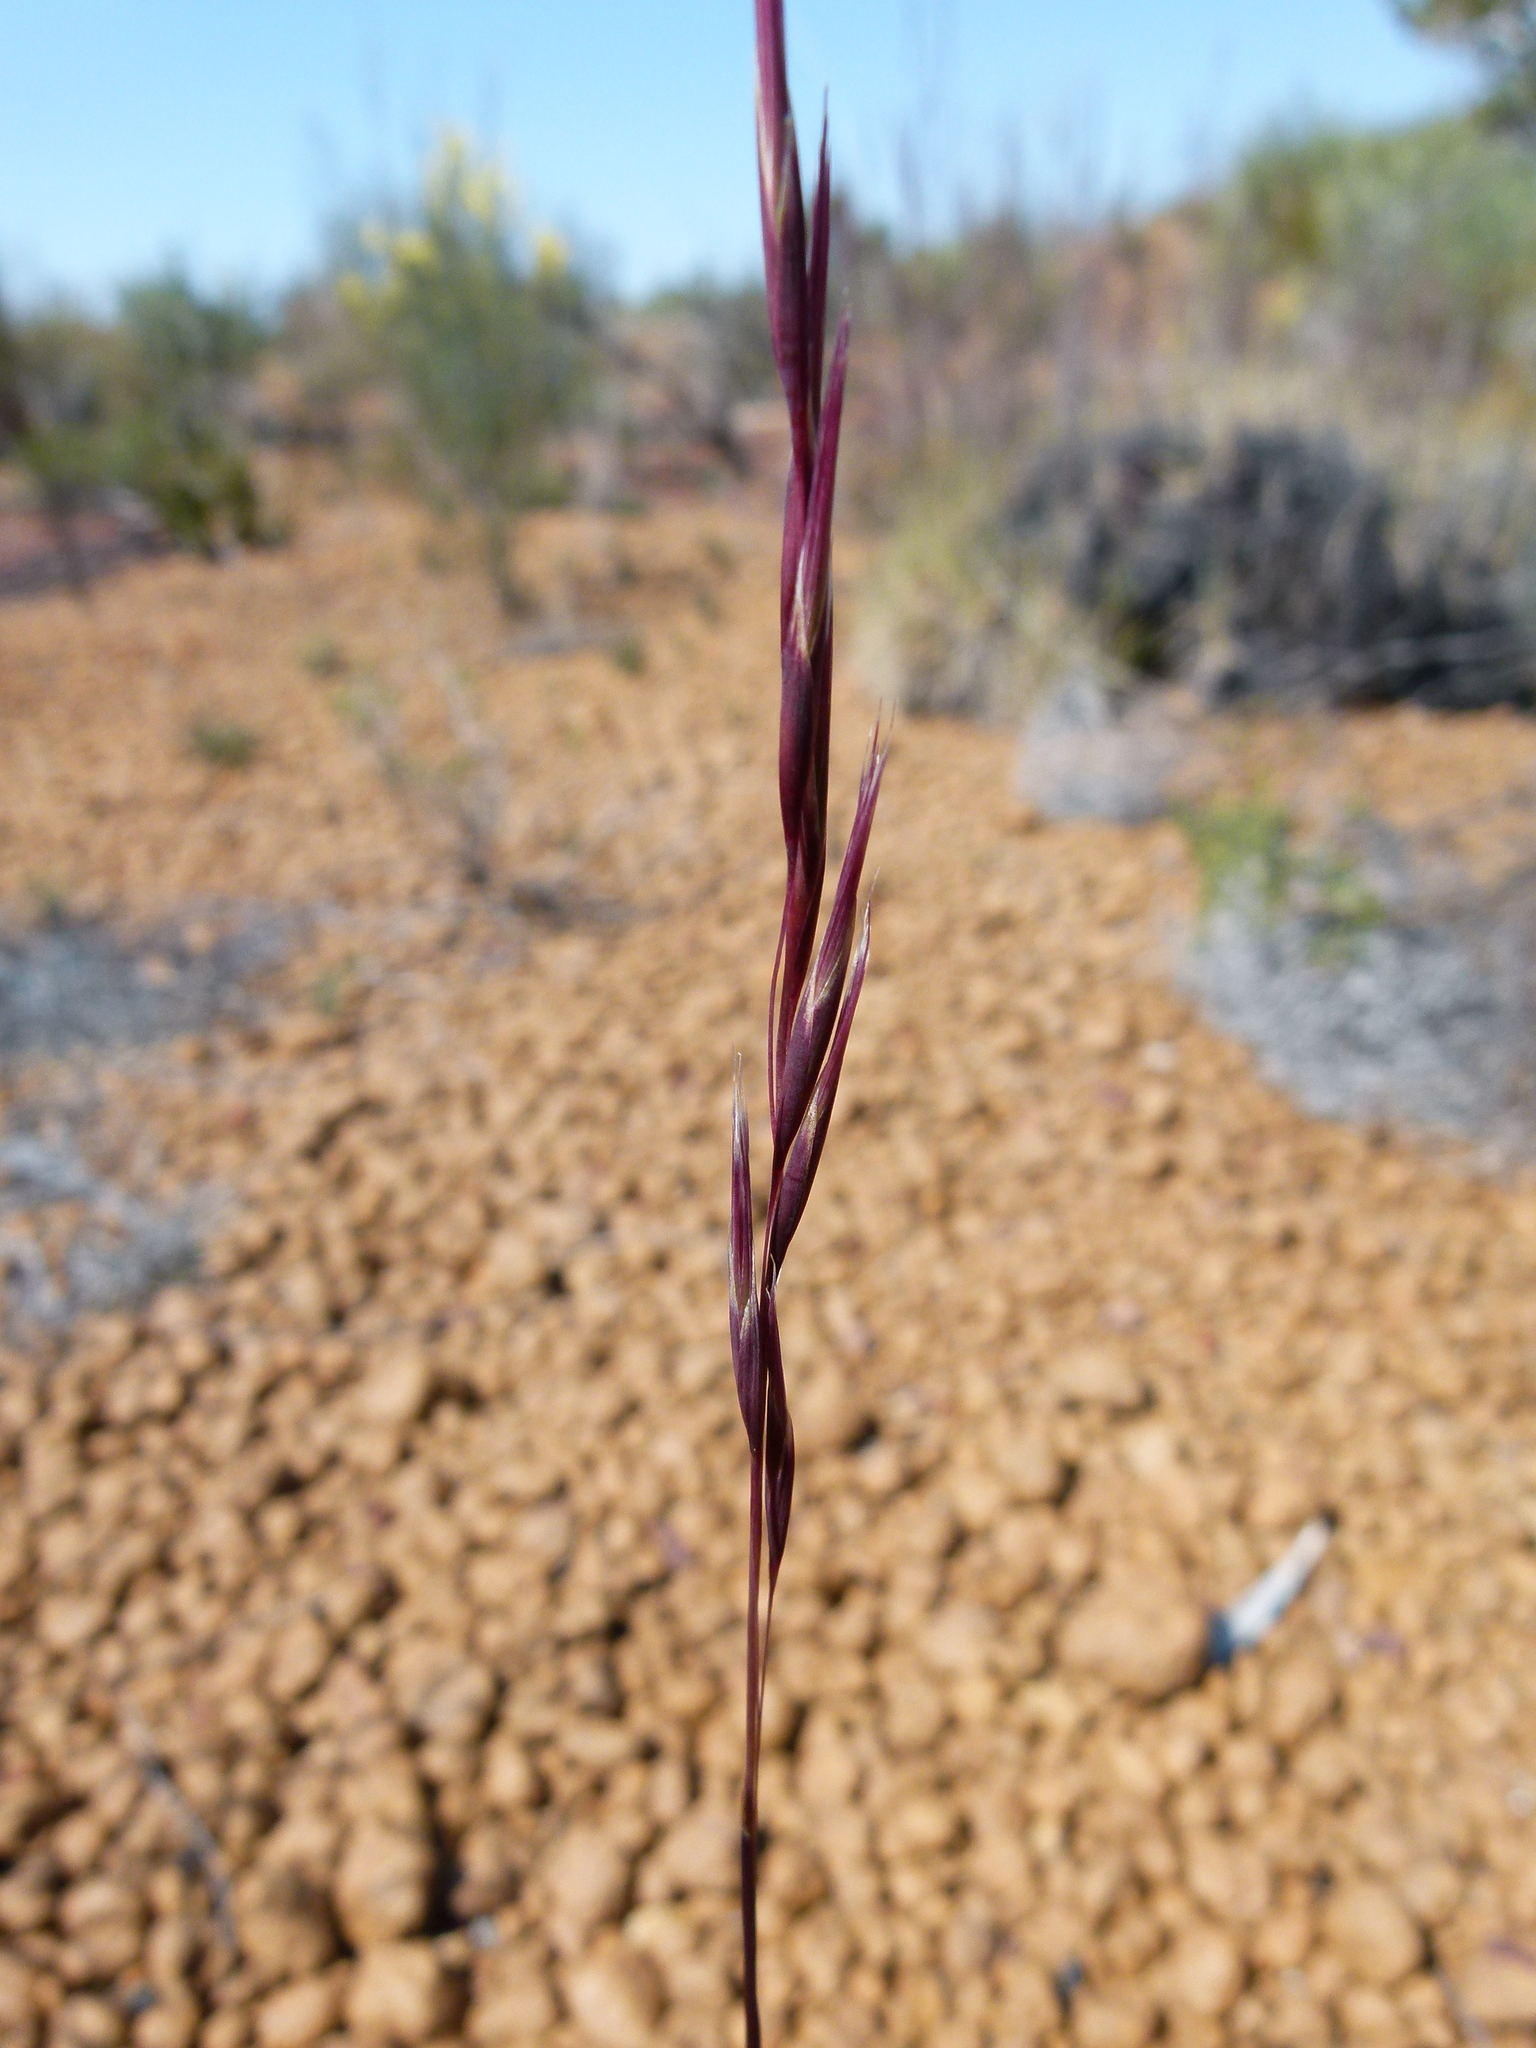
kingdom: Plantae
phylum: Tracheophyta
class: Liliopsida
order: Poales
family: Poaceae
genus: Triodia
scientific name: Triodia rigidissima
